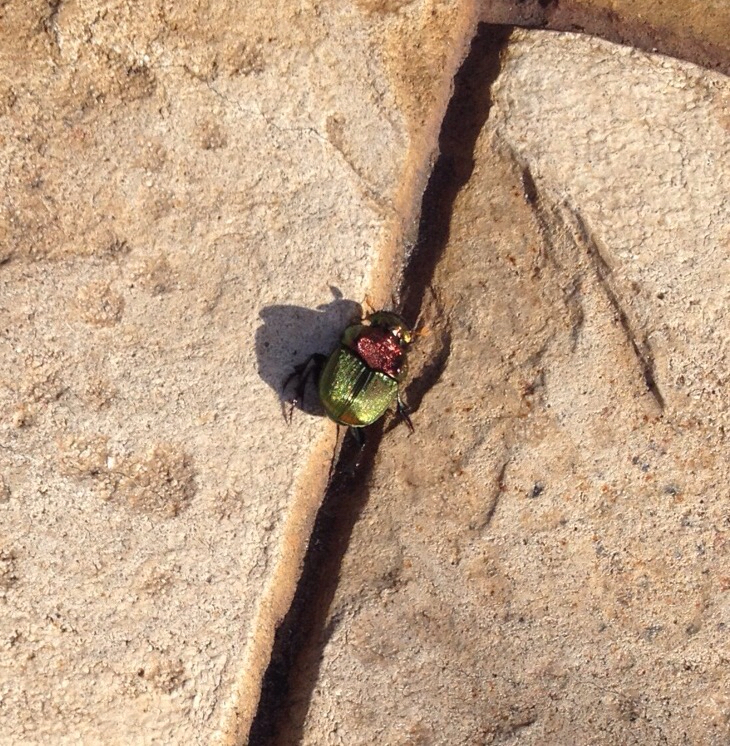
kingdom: Animalia
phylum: Arthropoda
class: Insecta
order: Coleoptera
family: Scarabaeidae
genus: Phanaeus
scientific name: Phanaeus vindex
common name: Rainbow scarab
